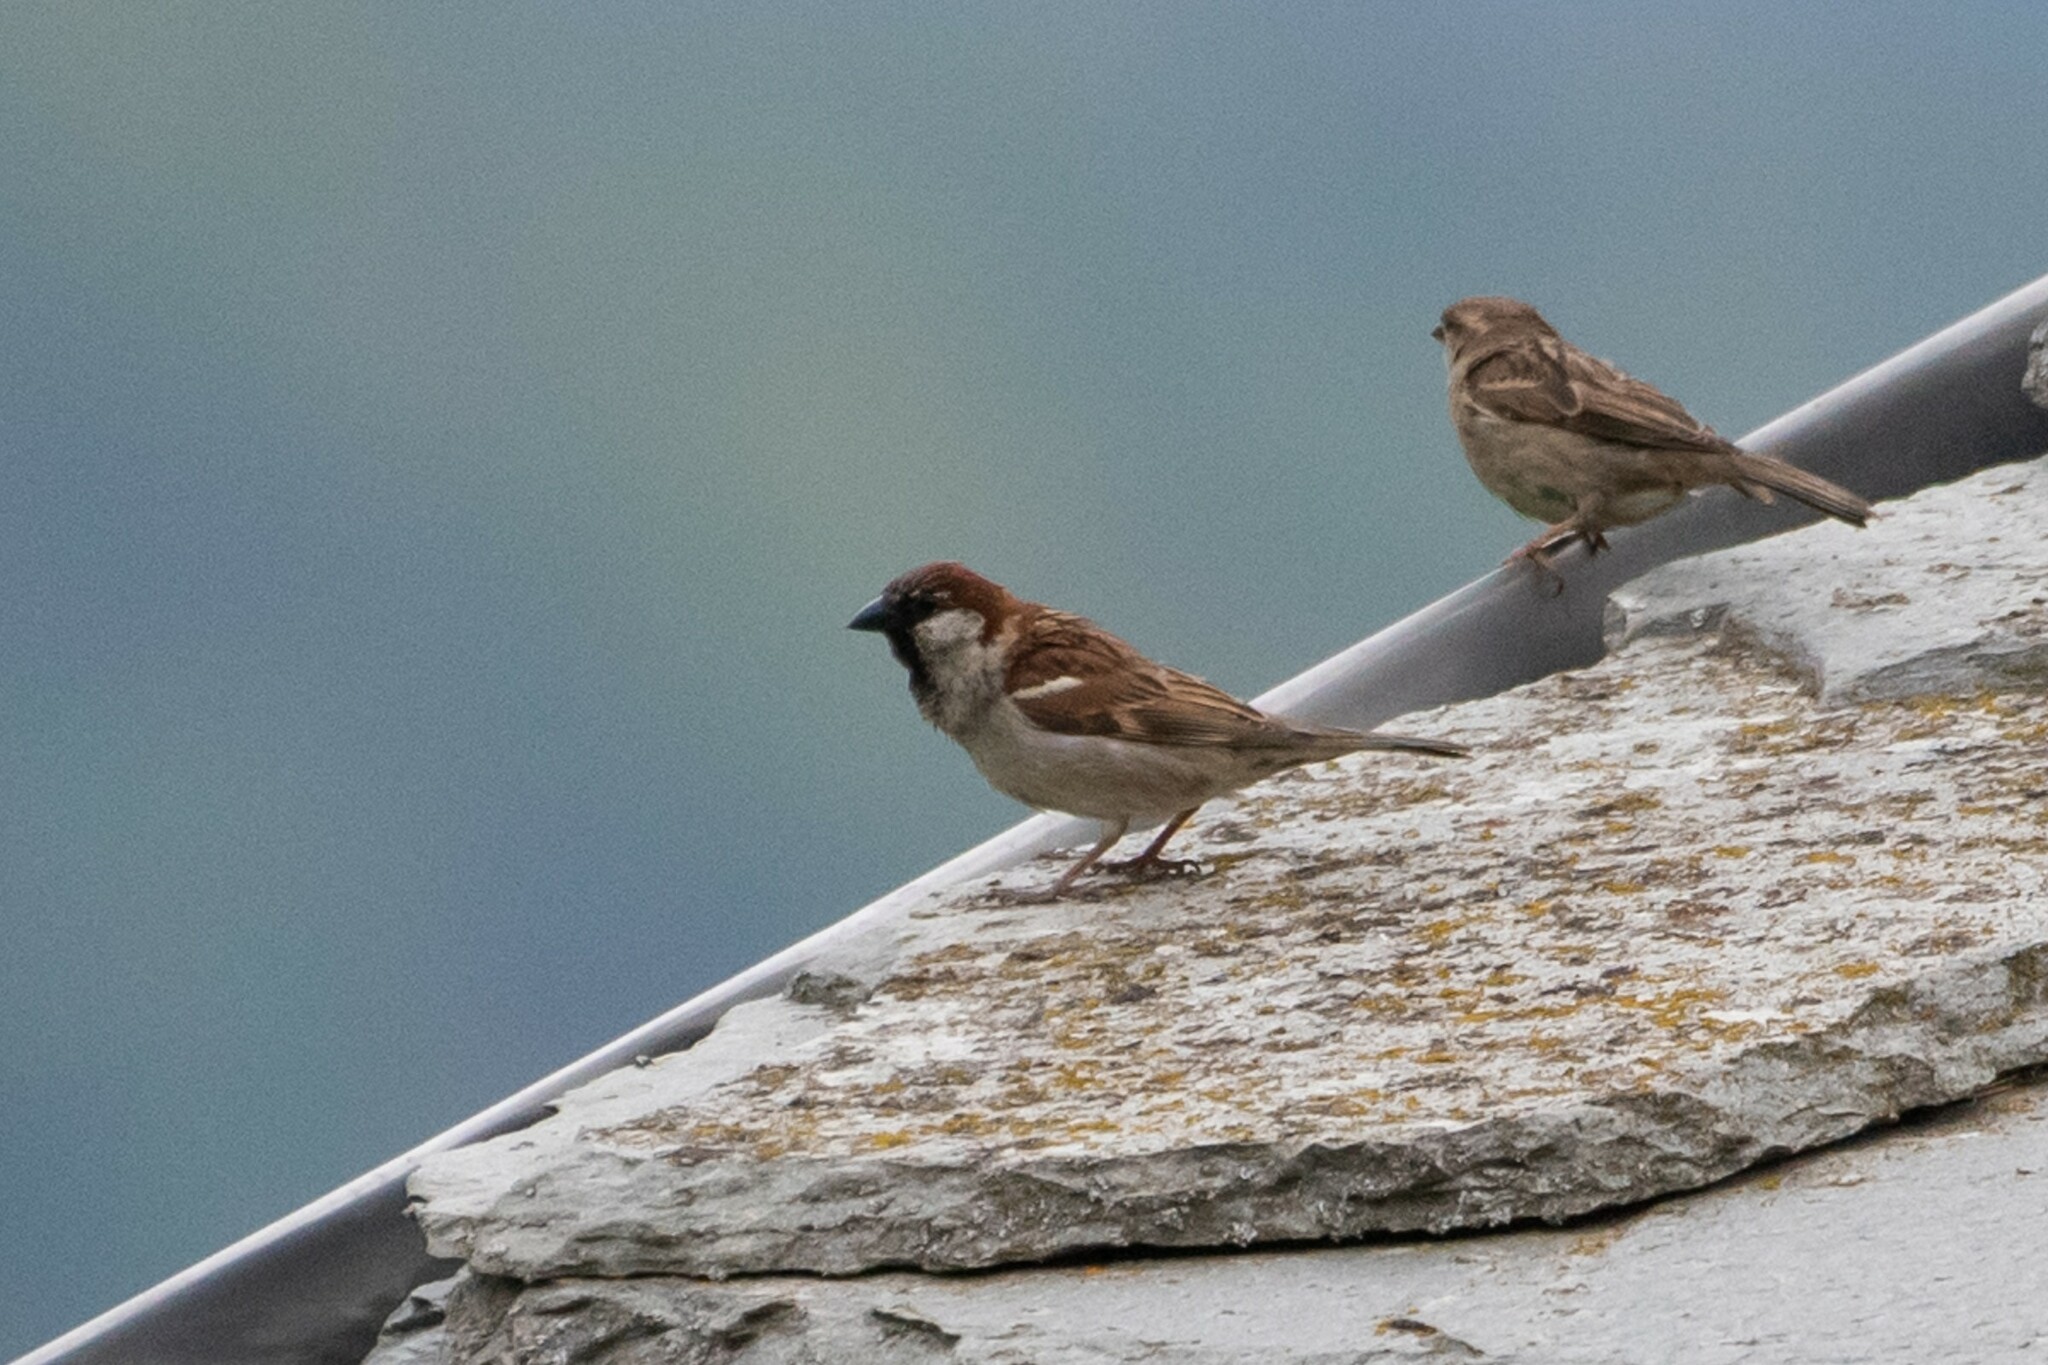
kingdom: Animalia
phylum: Chordata
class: Aves
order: Passeriformes
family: Passeridae
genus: Passer
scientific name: Passer italiae
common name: Italian sparrow
